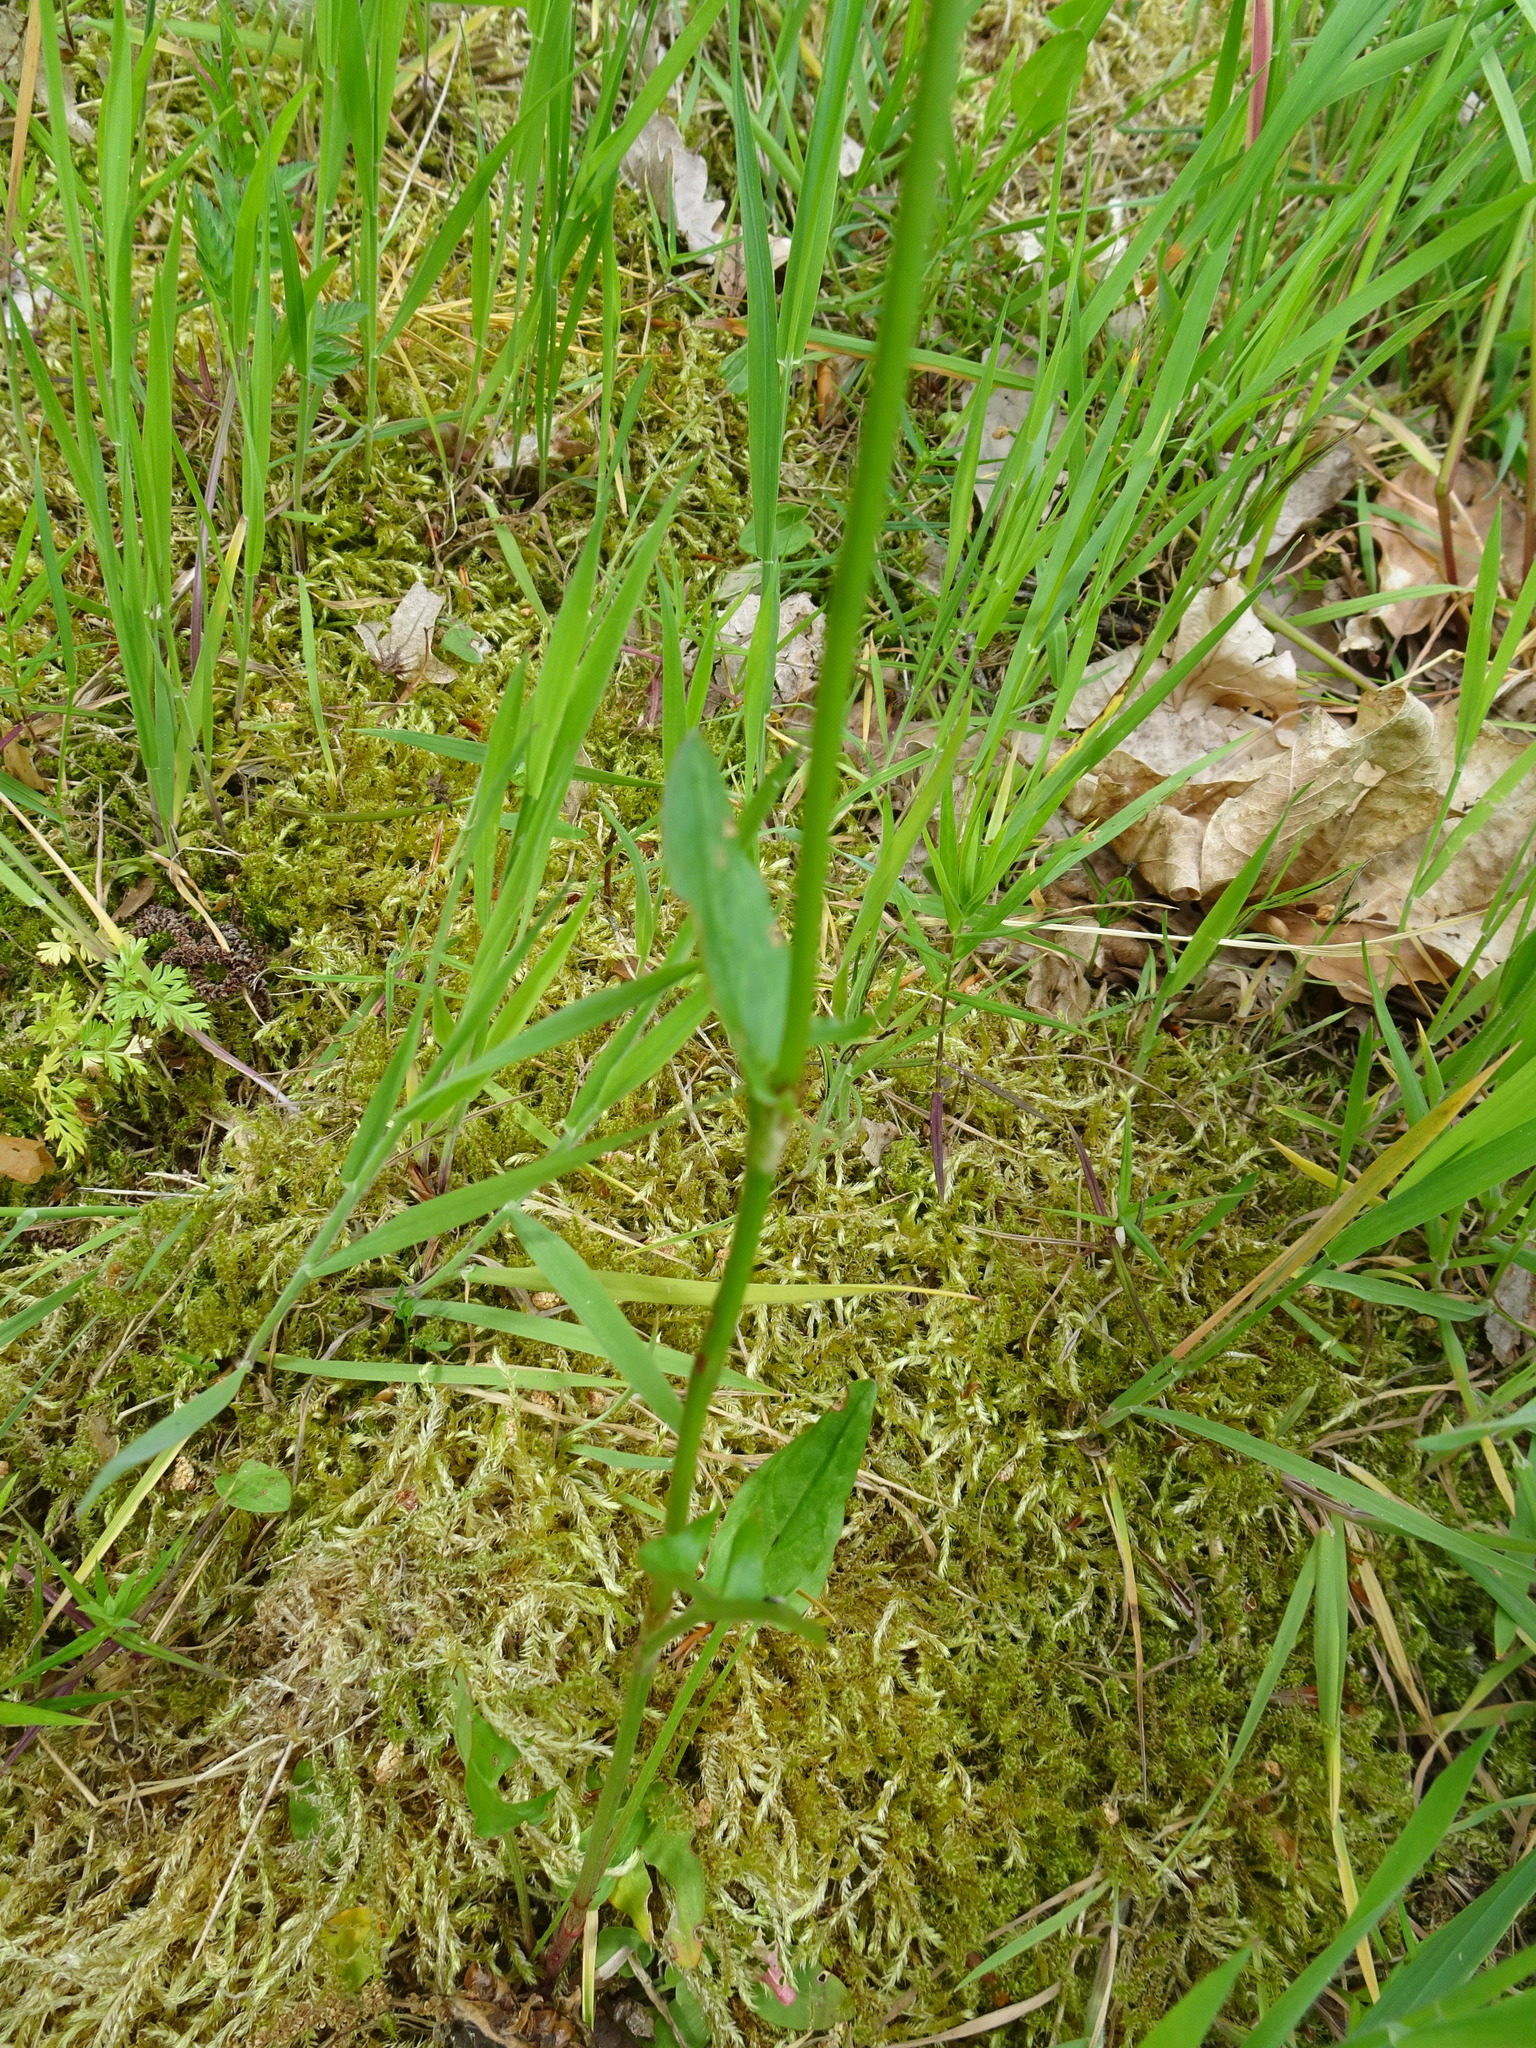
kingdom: Plantae
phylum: Tracheophyta
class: Magnoliopsida
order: Caryophyllales
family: Polygonaceae
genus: Rumex
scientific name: Rumex acetosa
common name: Garden sorrel
